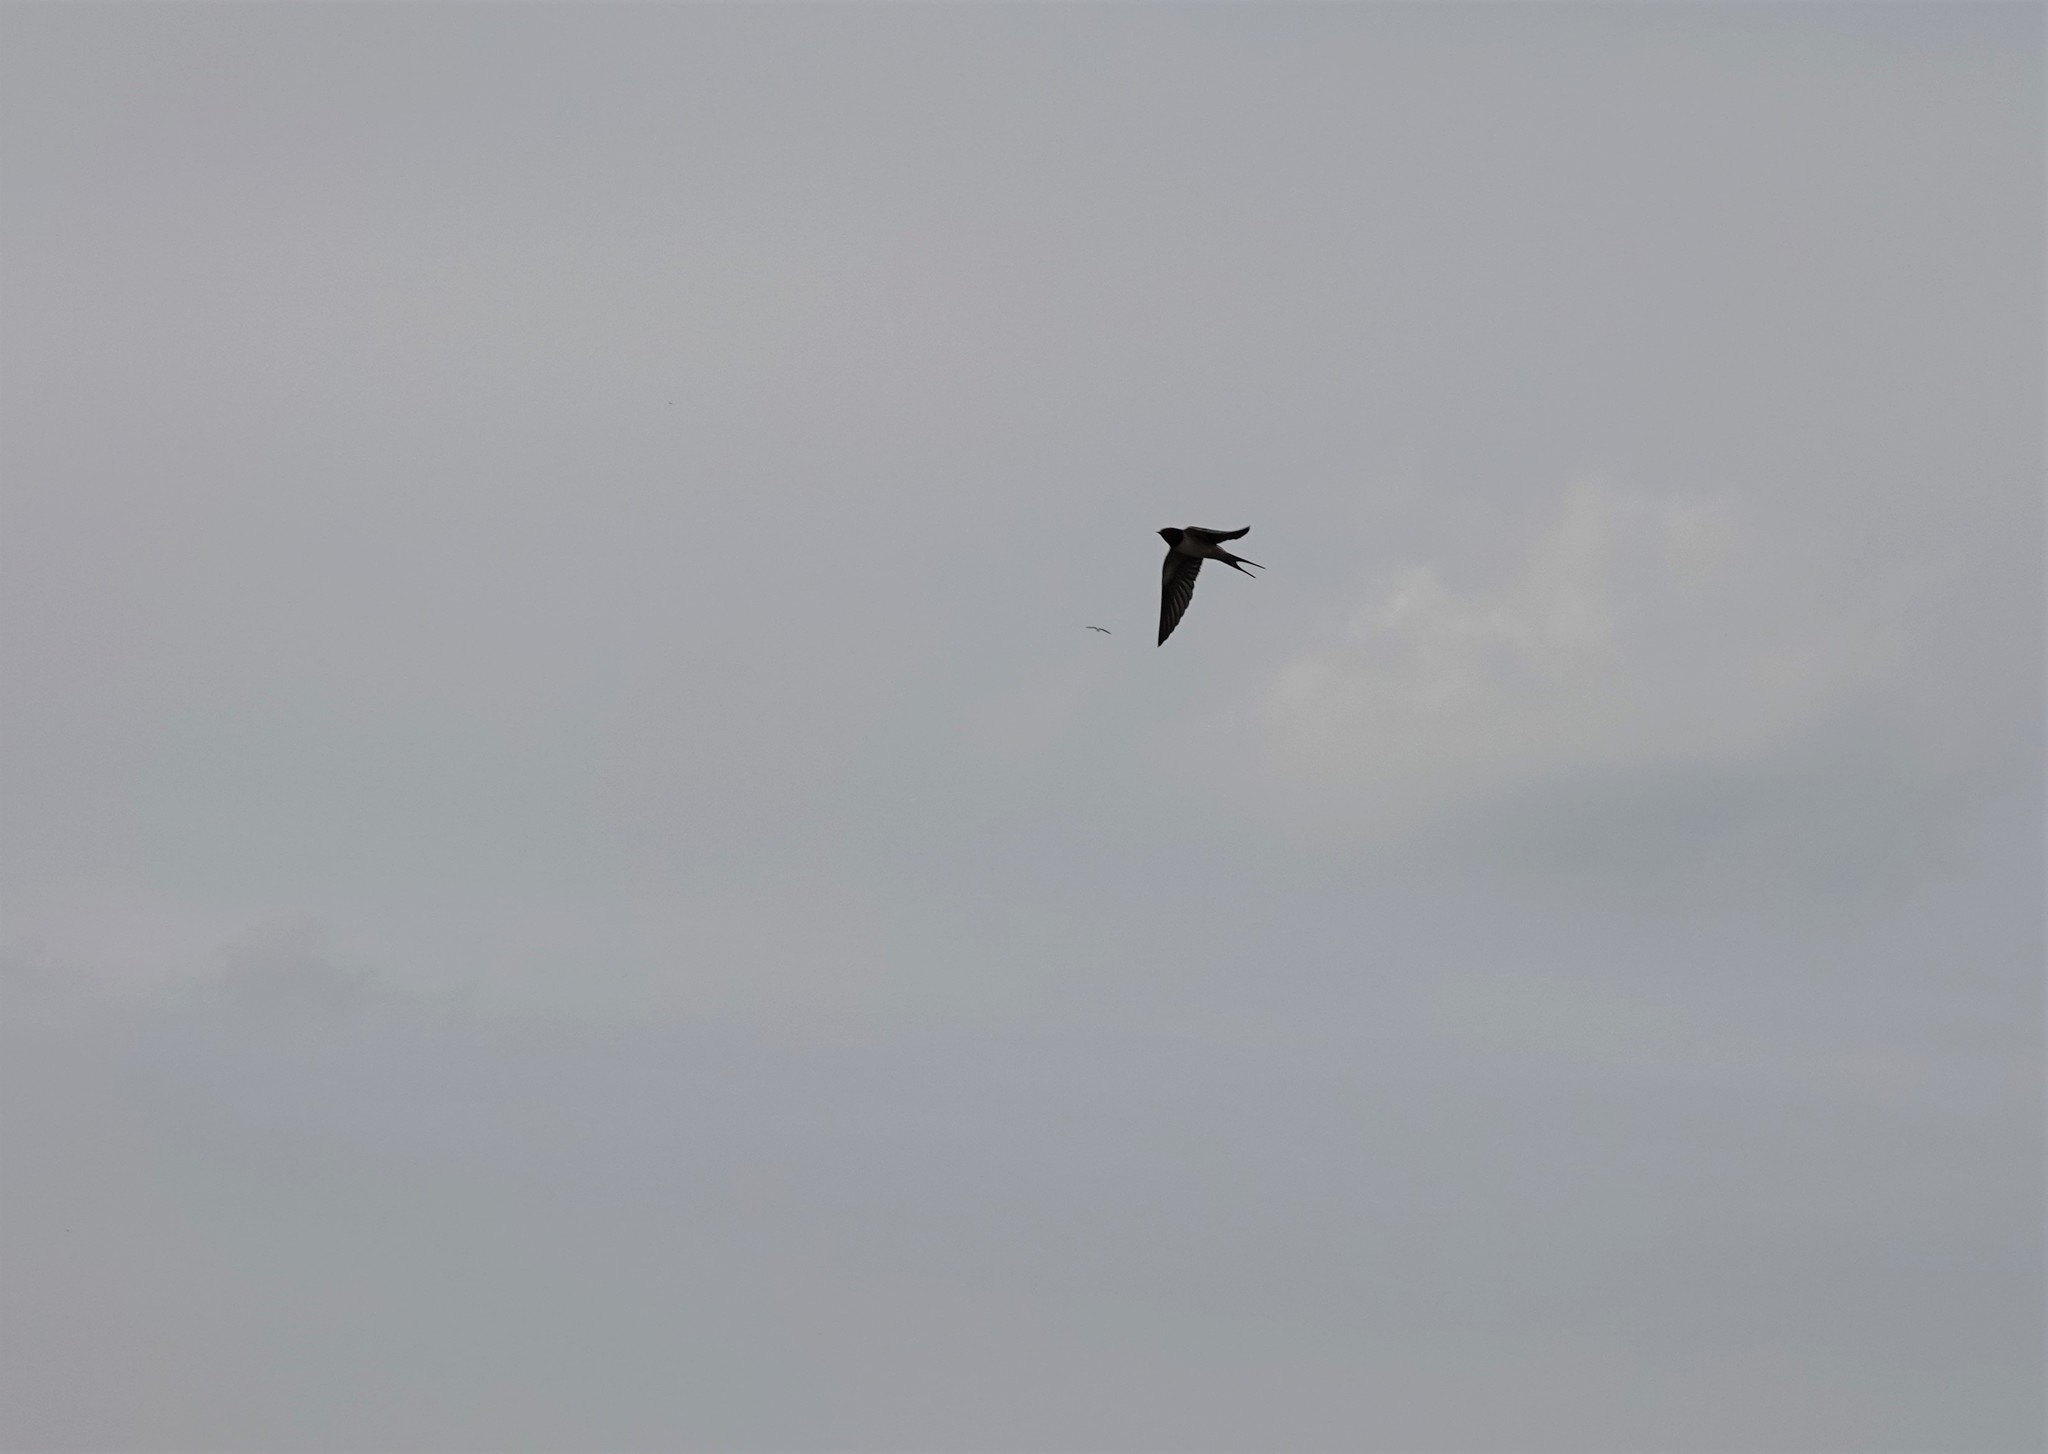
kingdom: Animalia
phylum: Chordata
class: Aves
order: Passeriformes
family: Hirundinidae
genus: Hirundo
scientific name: Hirundo rustica
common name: Barn swallow
